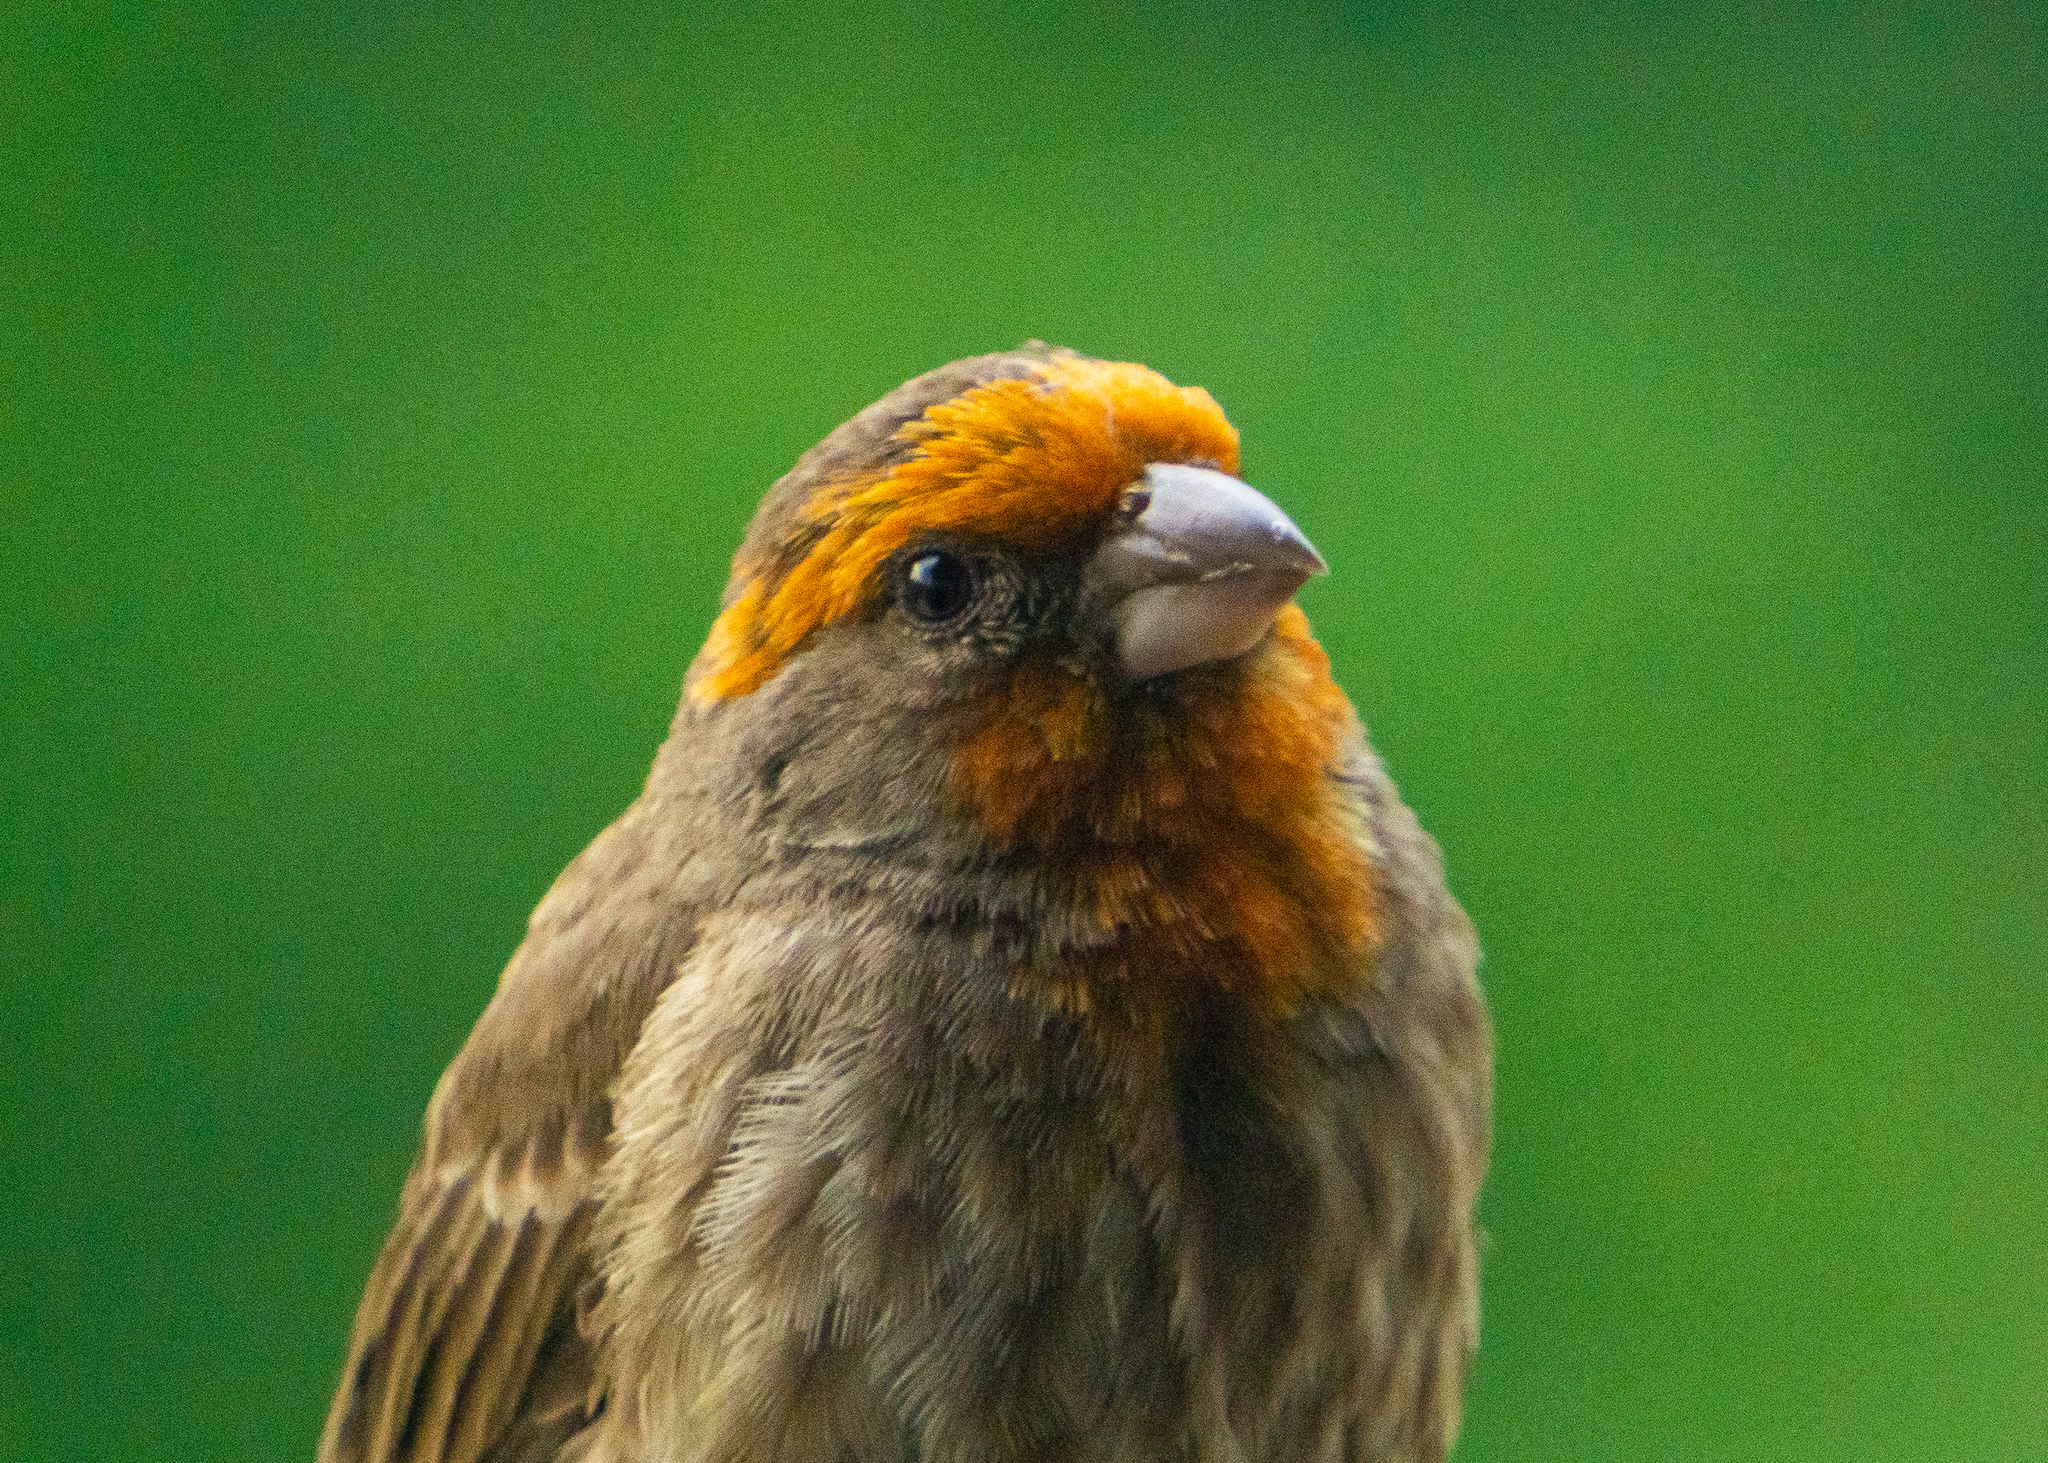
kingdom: Animalia
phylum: Chordata
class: Aves
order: Passeriformes
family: Fringillidae
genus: Haemorhous
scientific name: Haemorhous mexicanus
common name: House finch
